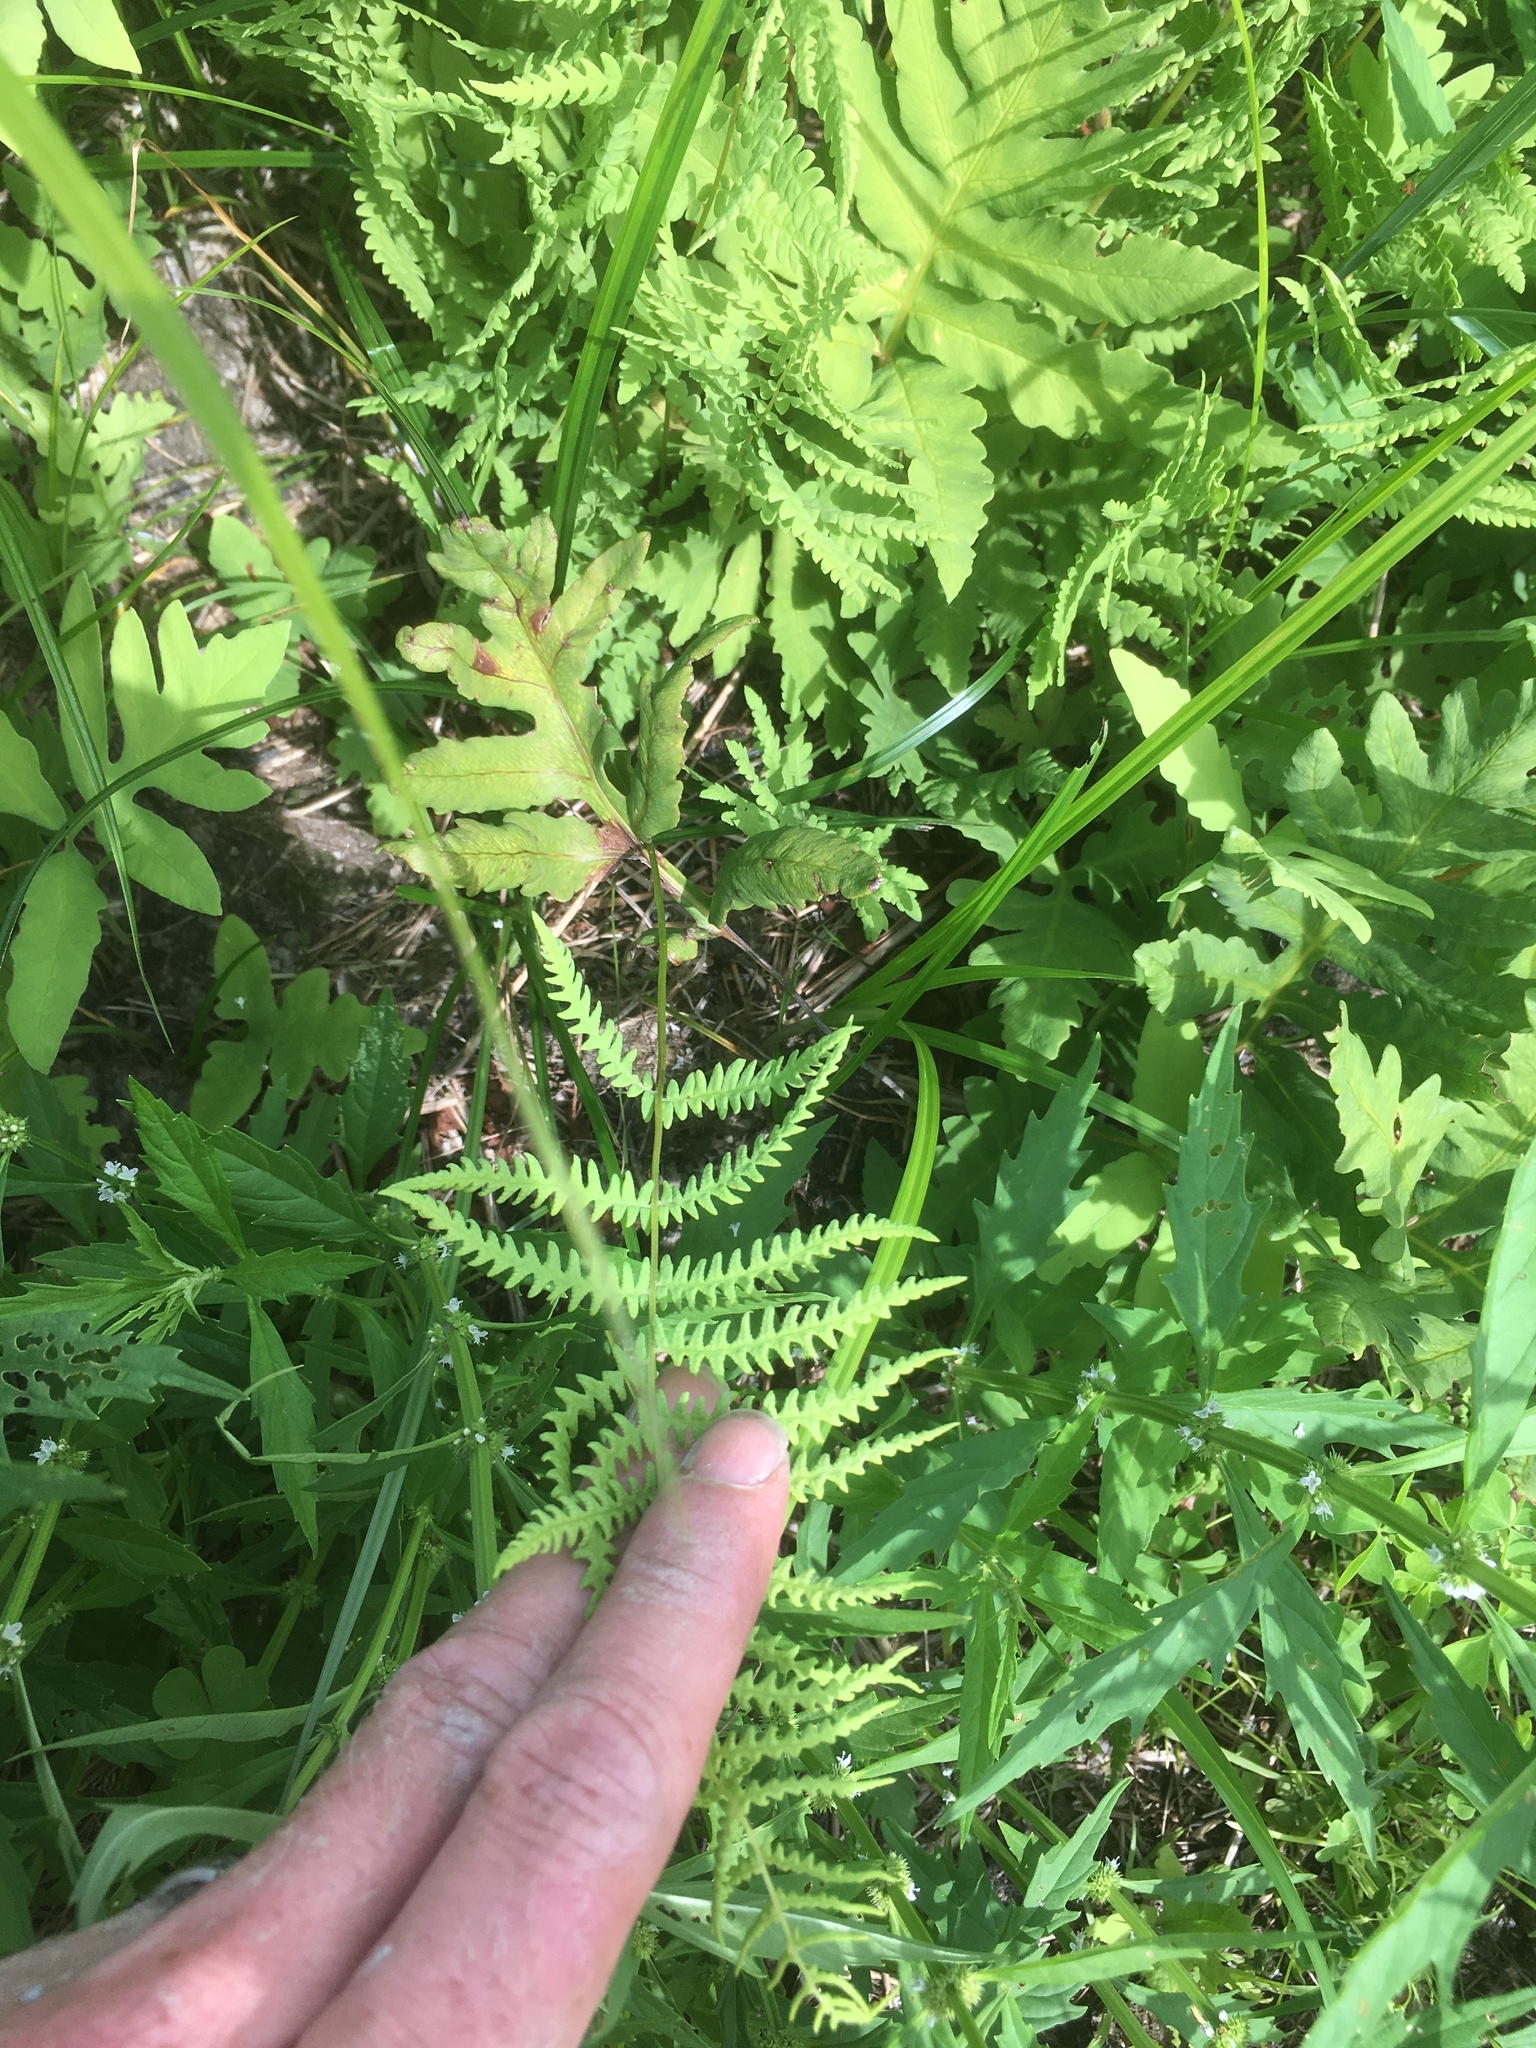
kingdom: Plantae
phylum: Tracheophyta
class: Polypodiopsida
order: Polypodiales
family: Thelypteridaceae
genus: Thelypteris
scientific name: Thelypteris palustris
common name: Marsh fern
